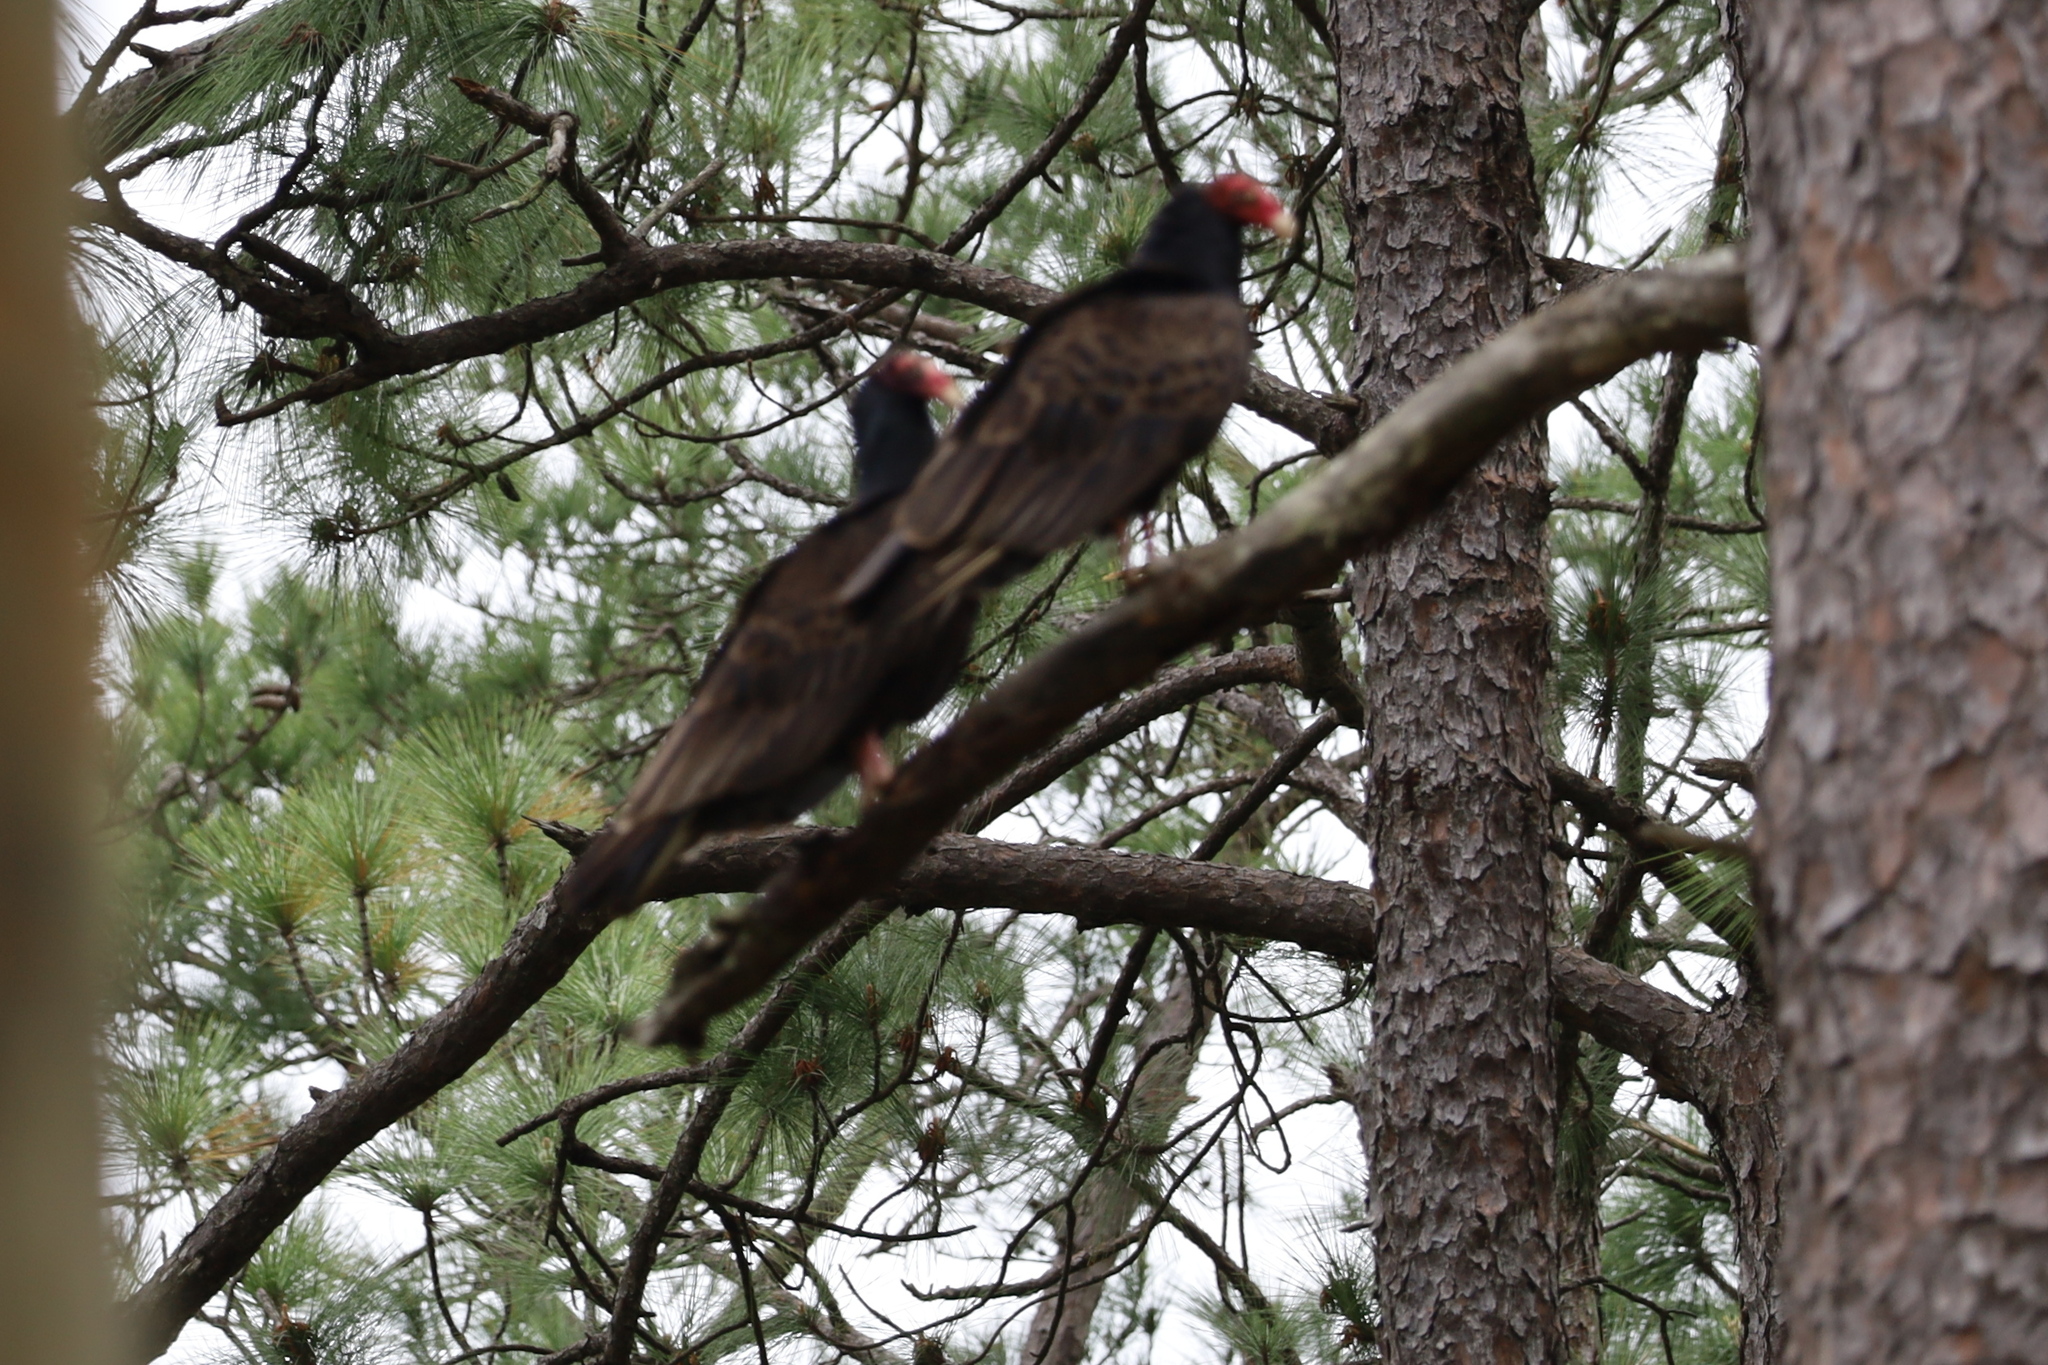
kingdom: Animalia
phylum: Chordata
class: Aves
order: Accipitriformes
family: Cathartidae
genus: Cathartes
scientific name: Cathartes aura
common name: Turkey vulture
